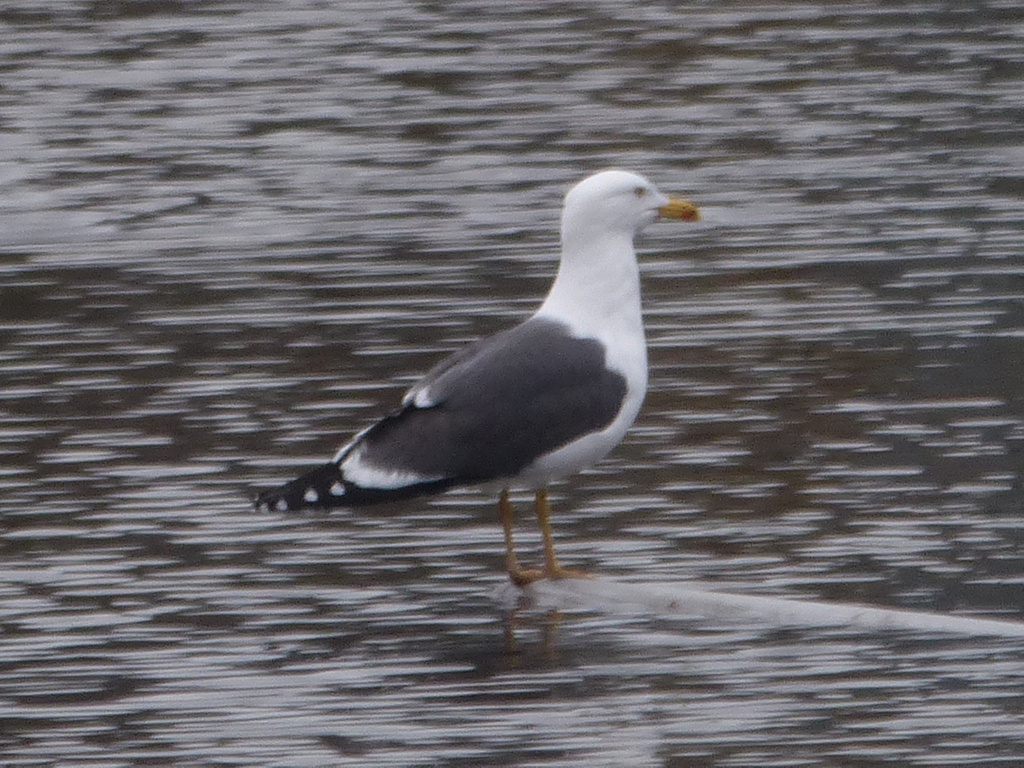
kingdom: Animalia
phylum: Chordata
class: Aves
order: Charadriiformes
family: Laridae
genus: Larus
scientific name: Larus fuscus
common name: Lesser black-backed gull
